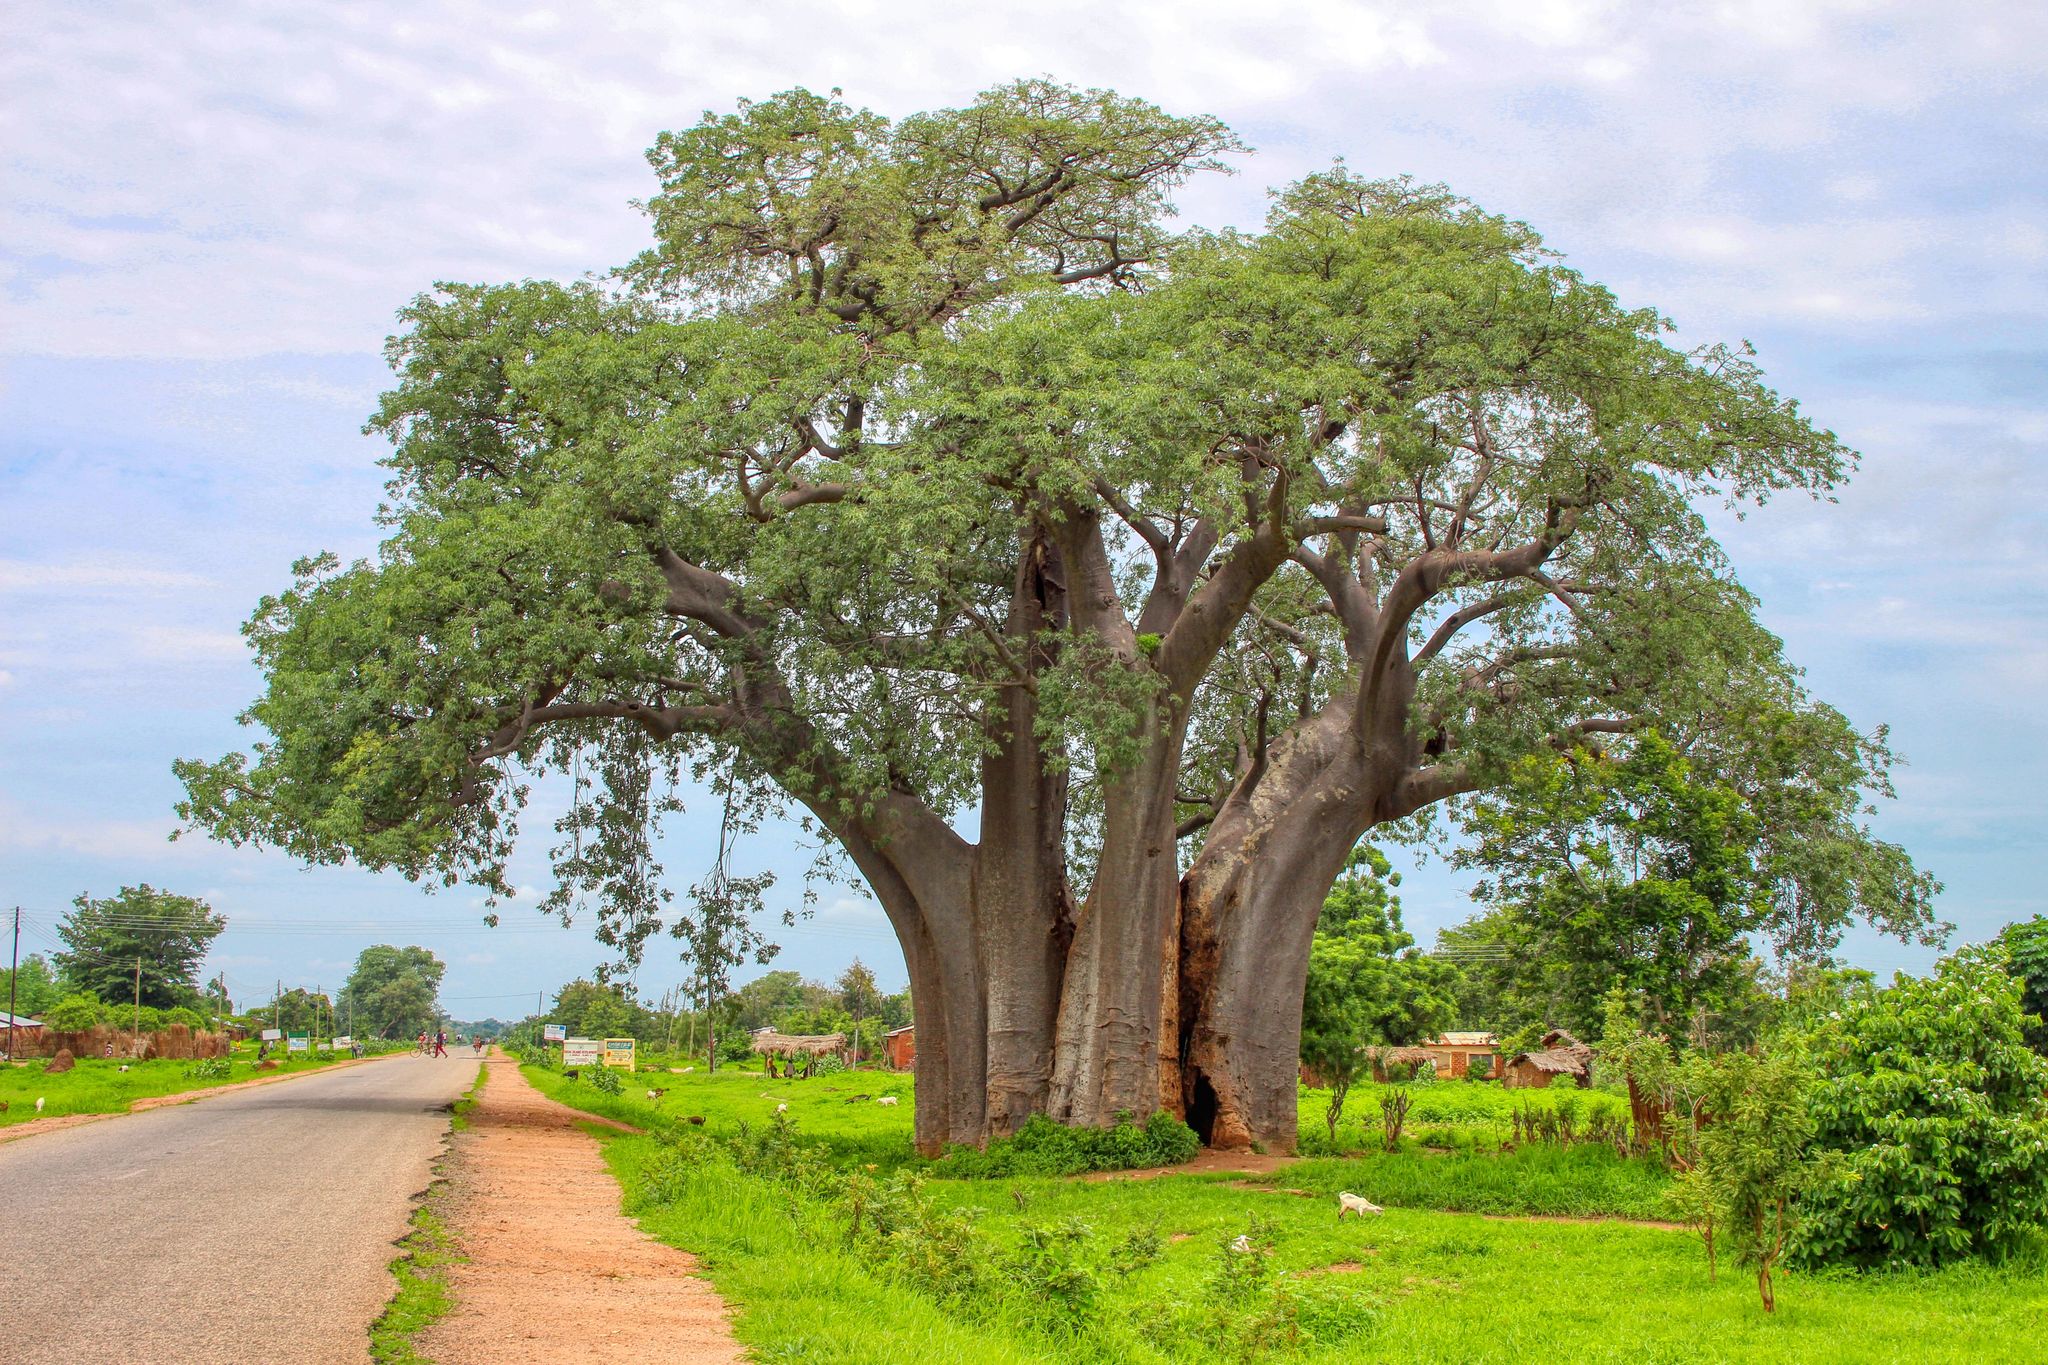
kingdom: Plantae
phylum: Tracheophyta
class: Magnoliopsida
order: Malvales
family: Malvaceae
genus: Adansonia
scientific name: Adansonia digitata
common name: Dead-rat-tree
